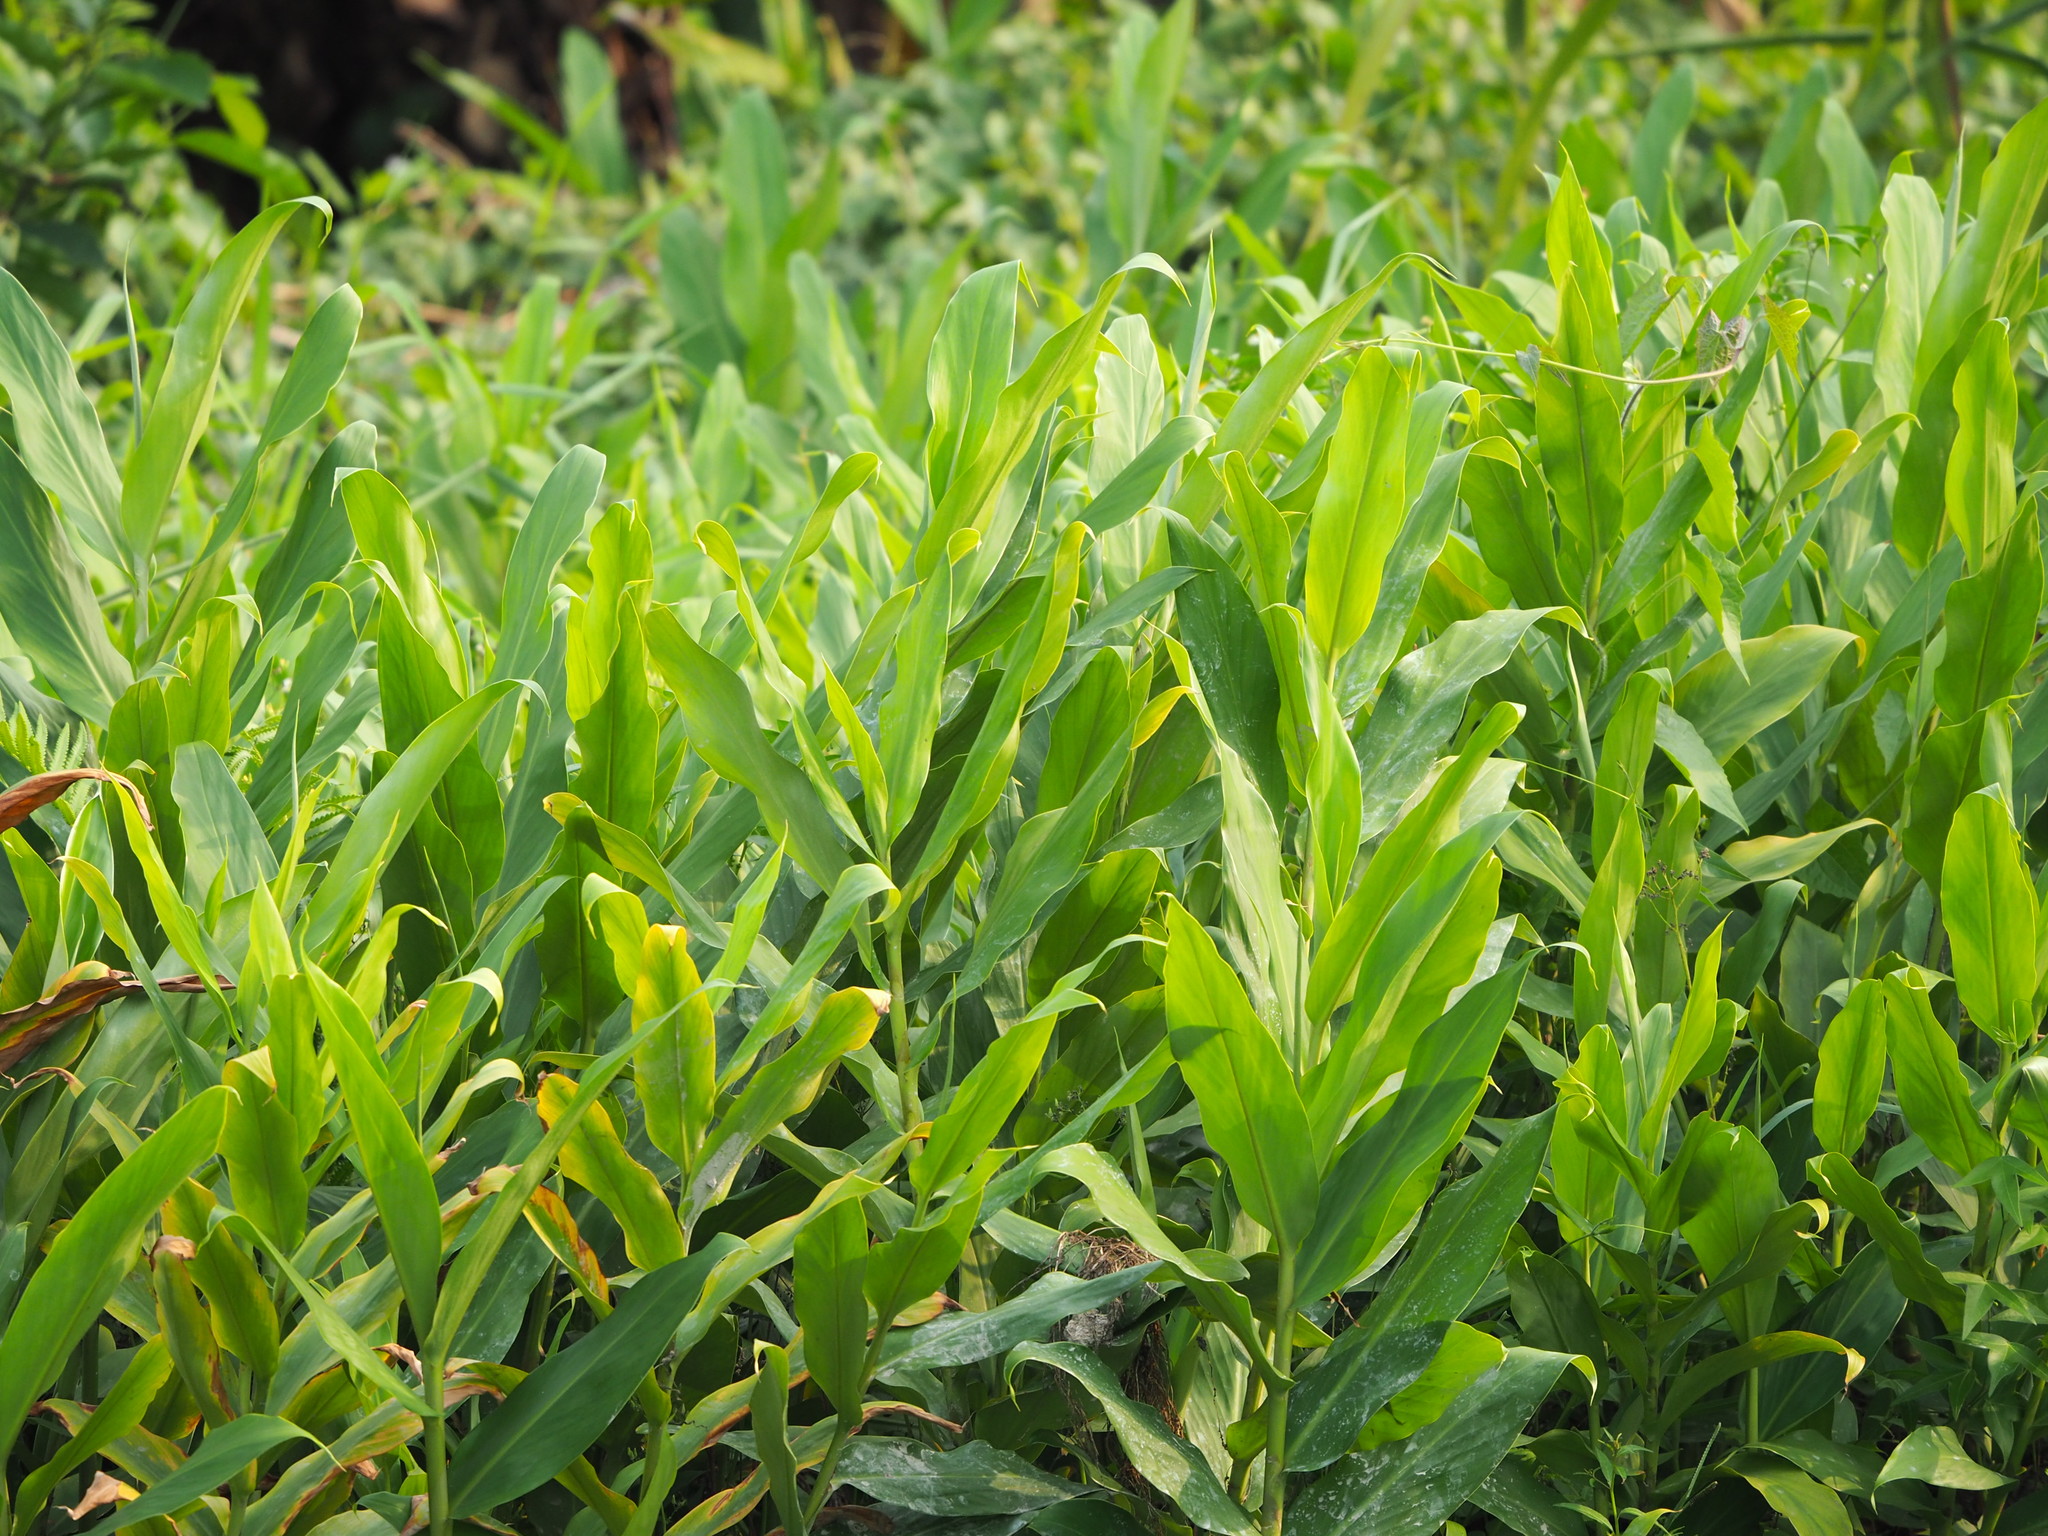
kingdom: Plantae
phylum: Tracheophyta
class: Liliopsida
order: Zingiberales
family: Zingiberaceae
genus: Hedychium
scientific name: Hedychium coronarium
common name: White garland-lily
